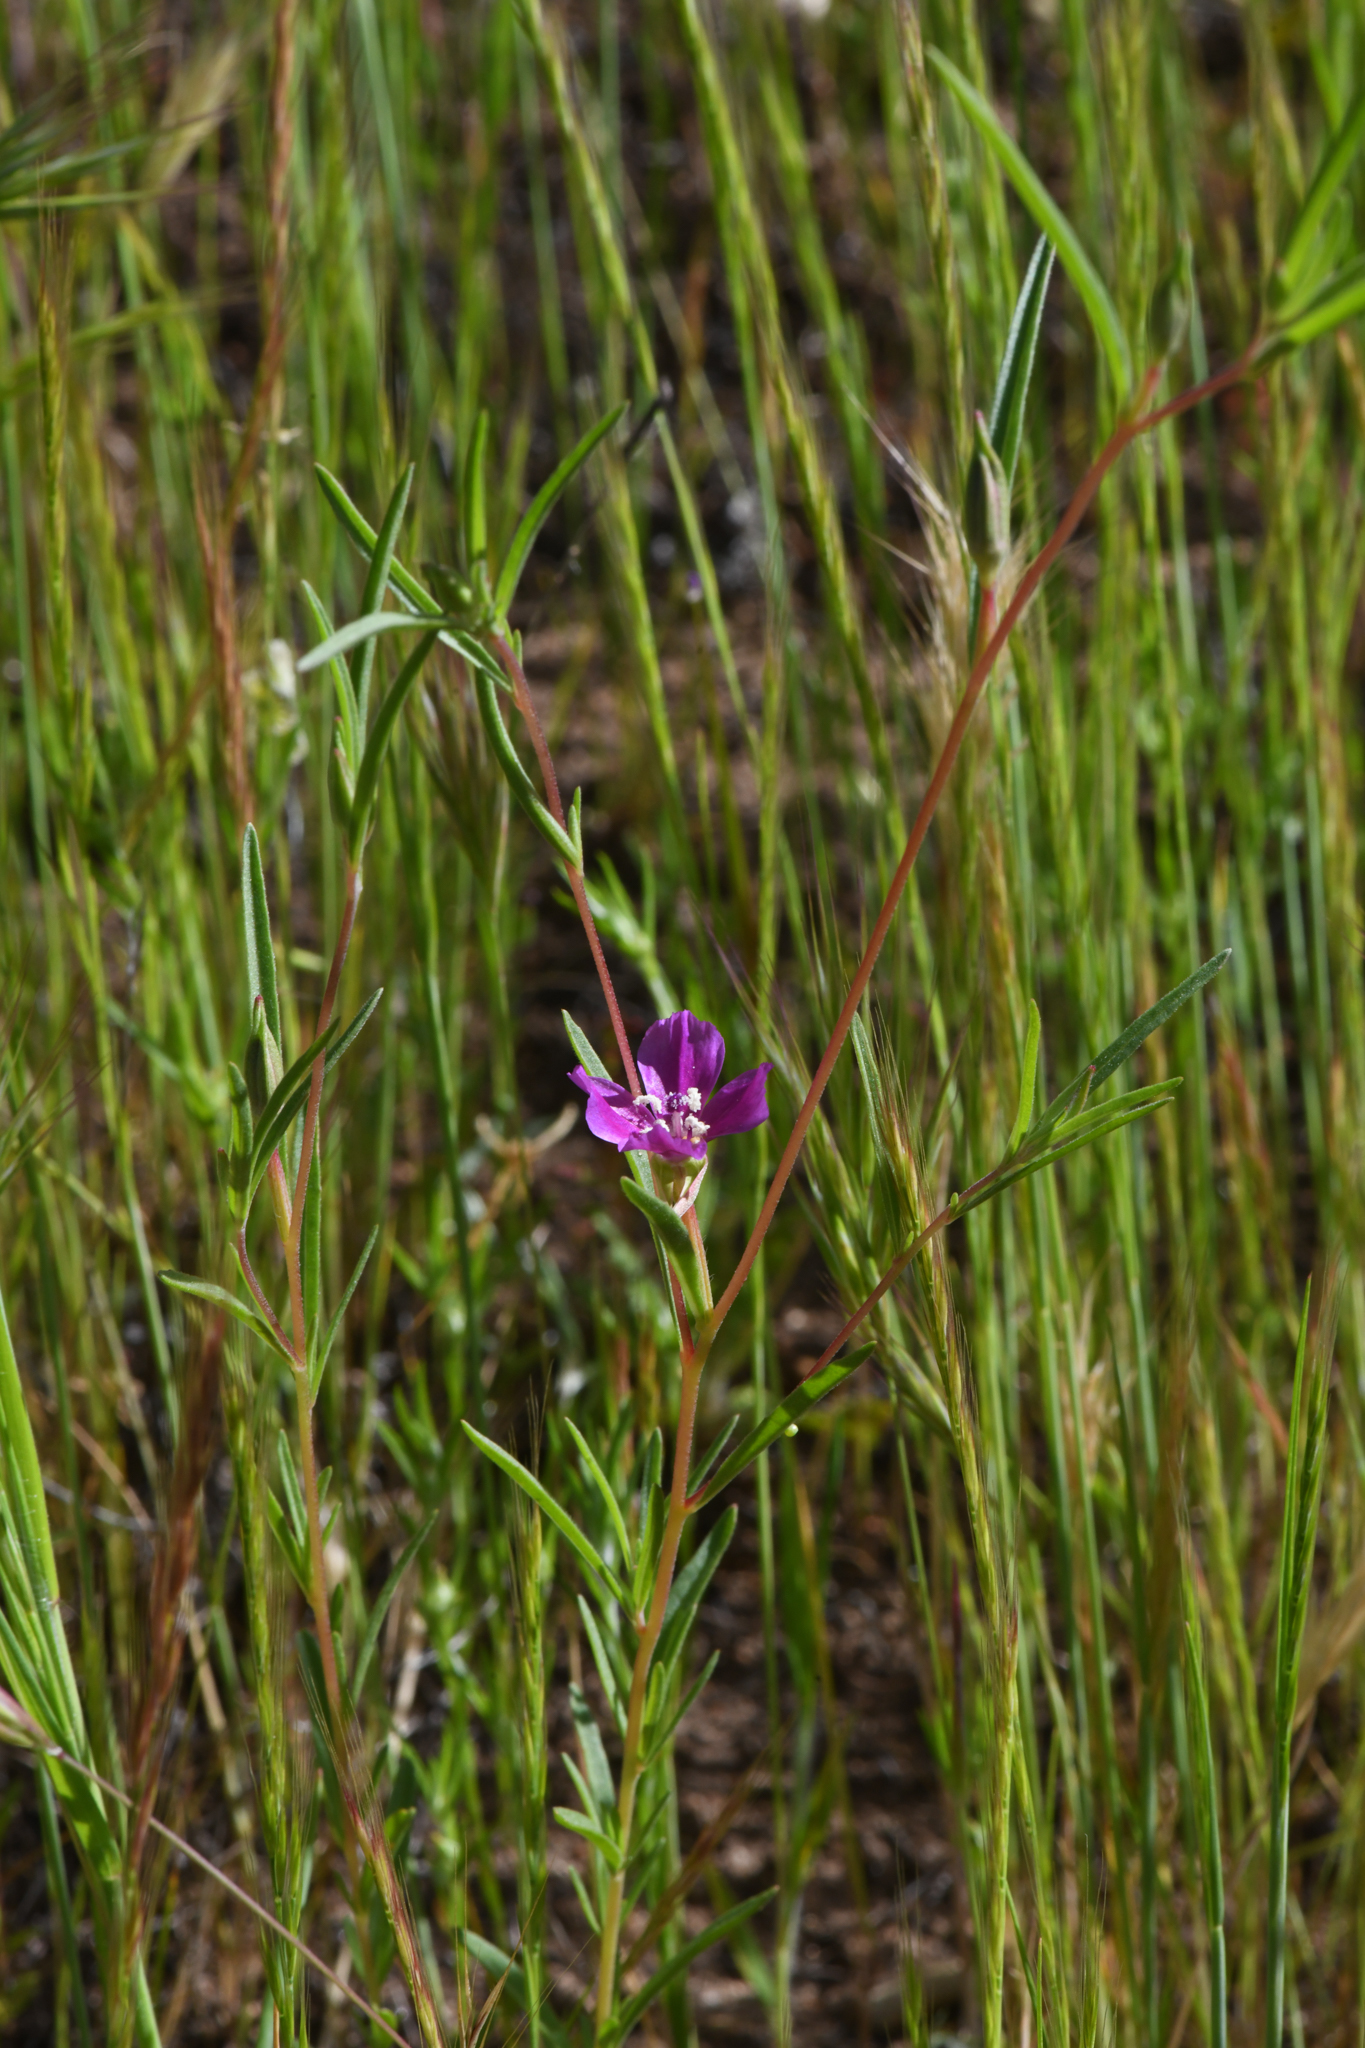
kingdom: Plantae
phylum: Tracheophyta
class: Magnoliopsida
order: Myrtales
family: Onagraceae
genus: Clarkia
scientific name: Clarkia purpurea
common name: Purple clarkia
